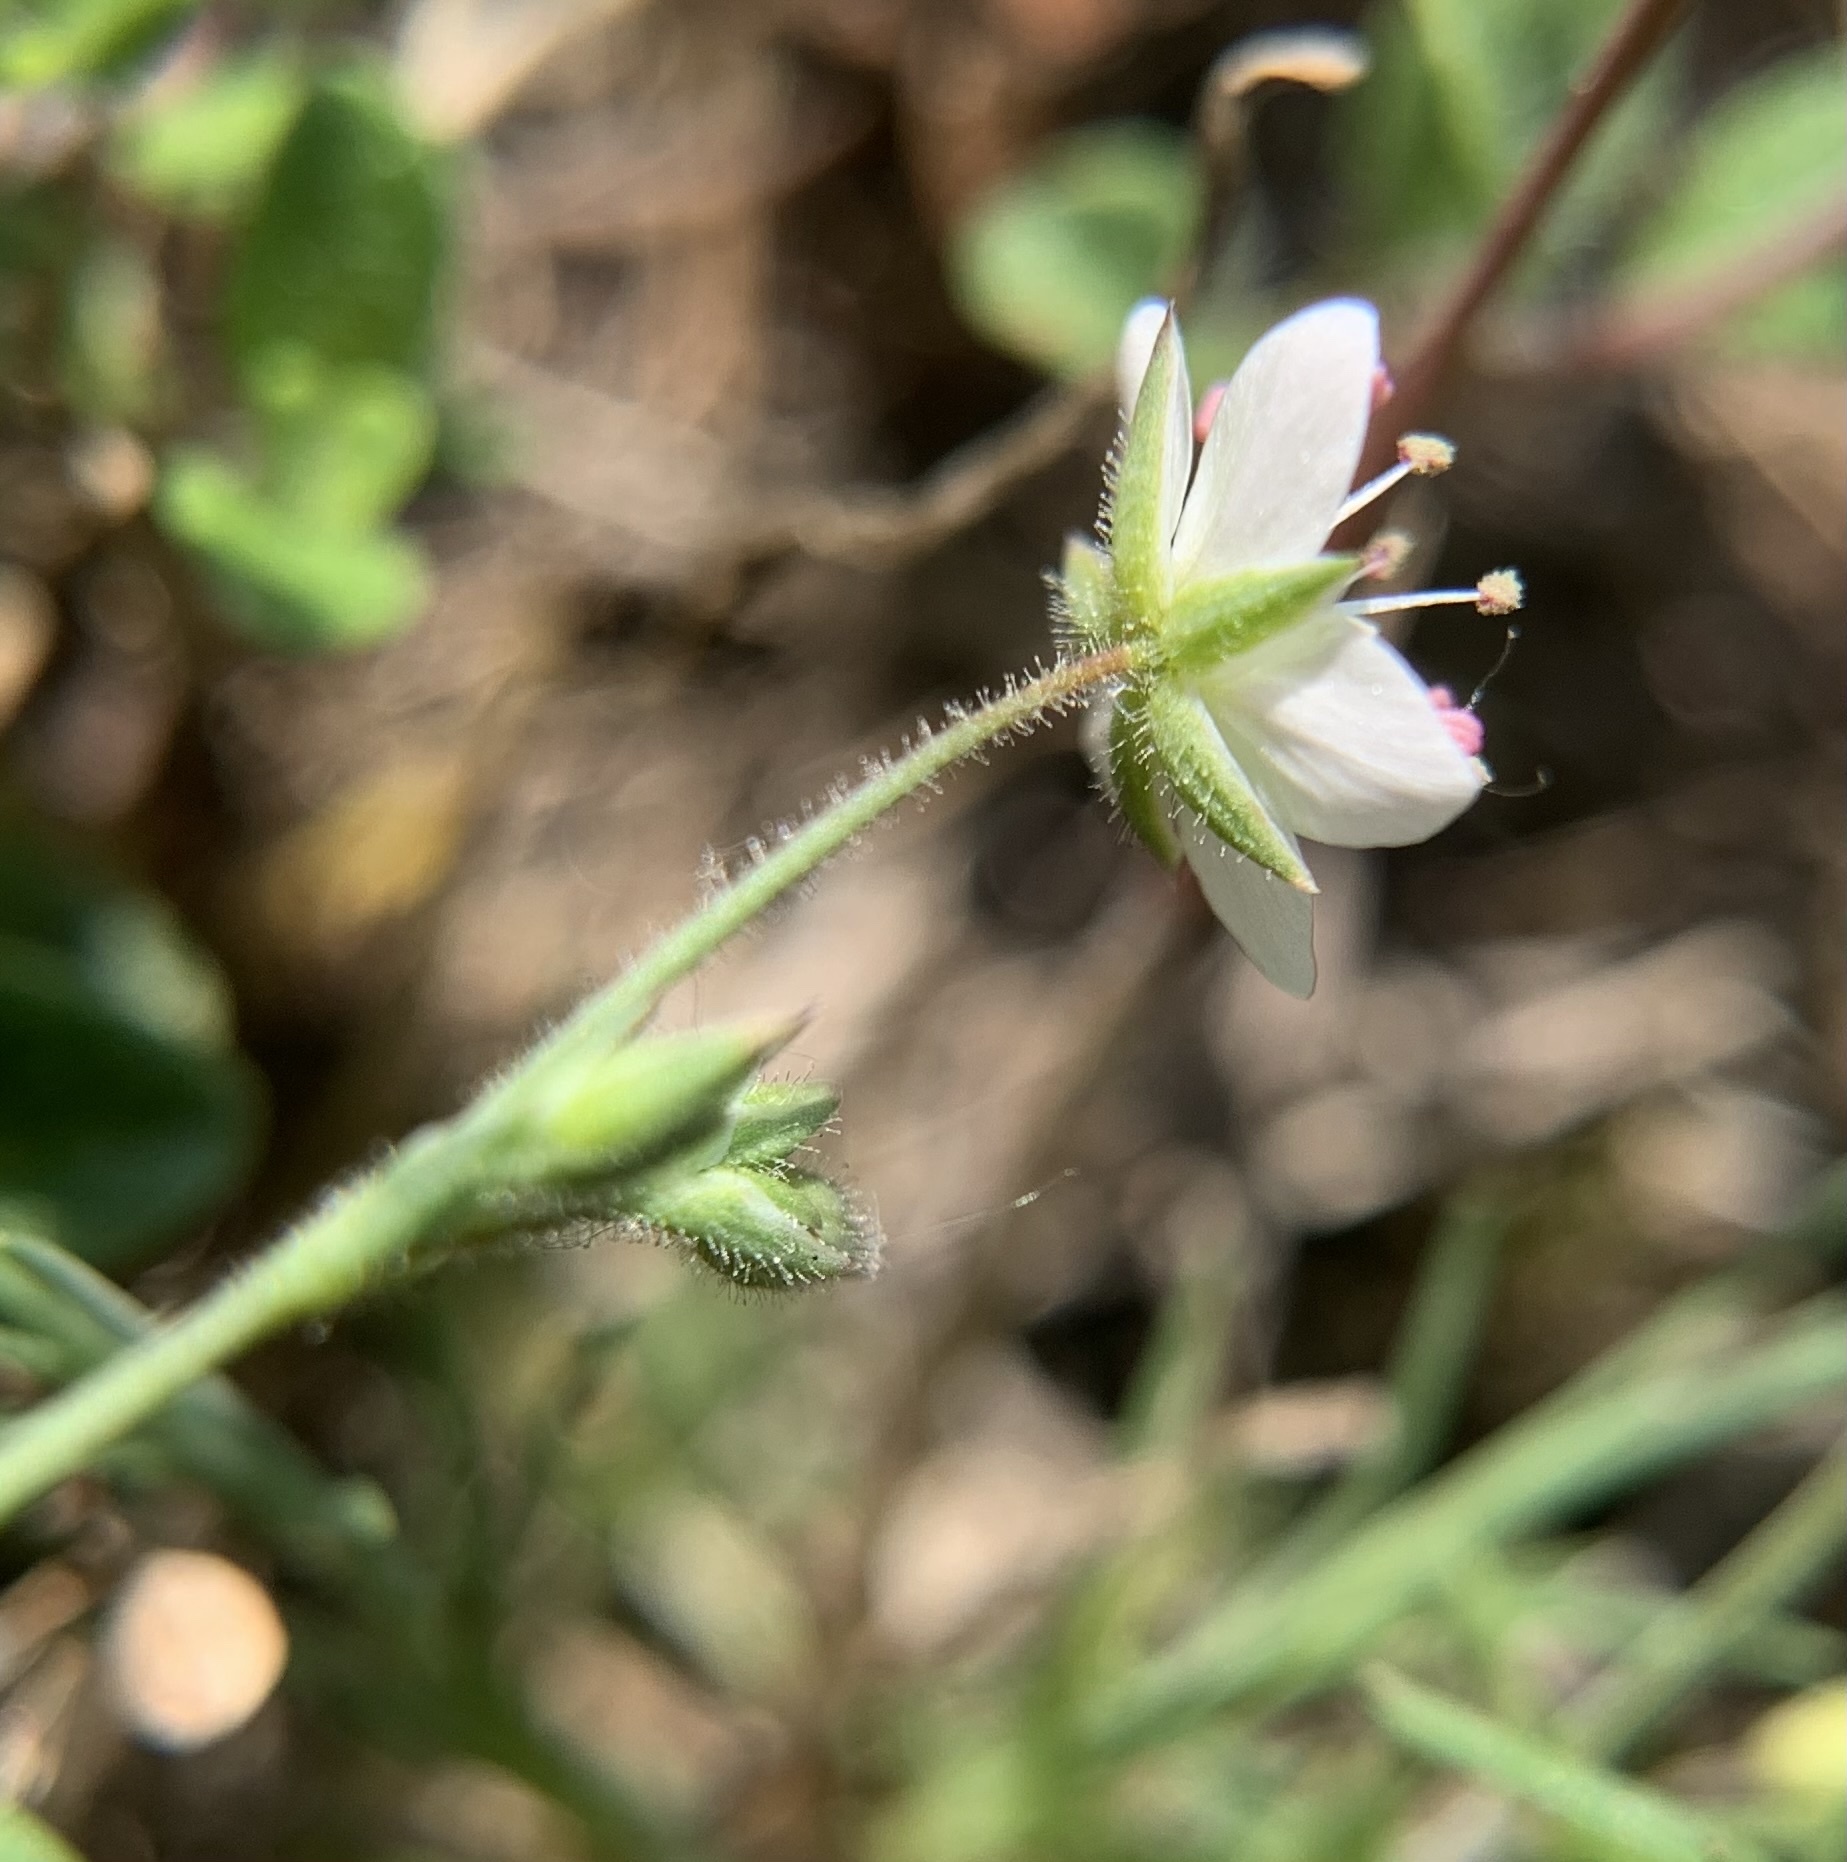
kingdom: Plantae
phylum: Tracheophyta
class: Magnoliopsida
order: Caryophyllales
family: Caryophyllaceae
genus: Sabulina
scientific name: Sabulina verna
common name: Spring sandwort
